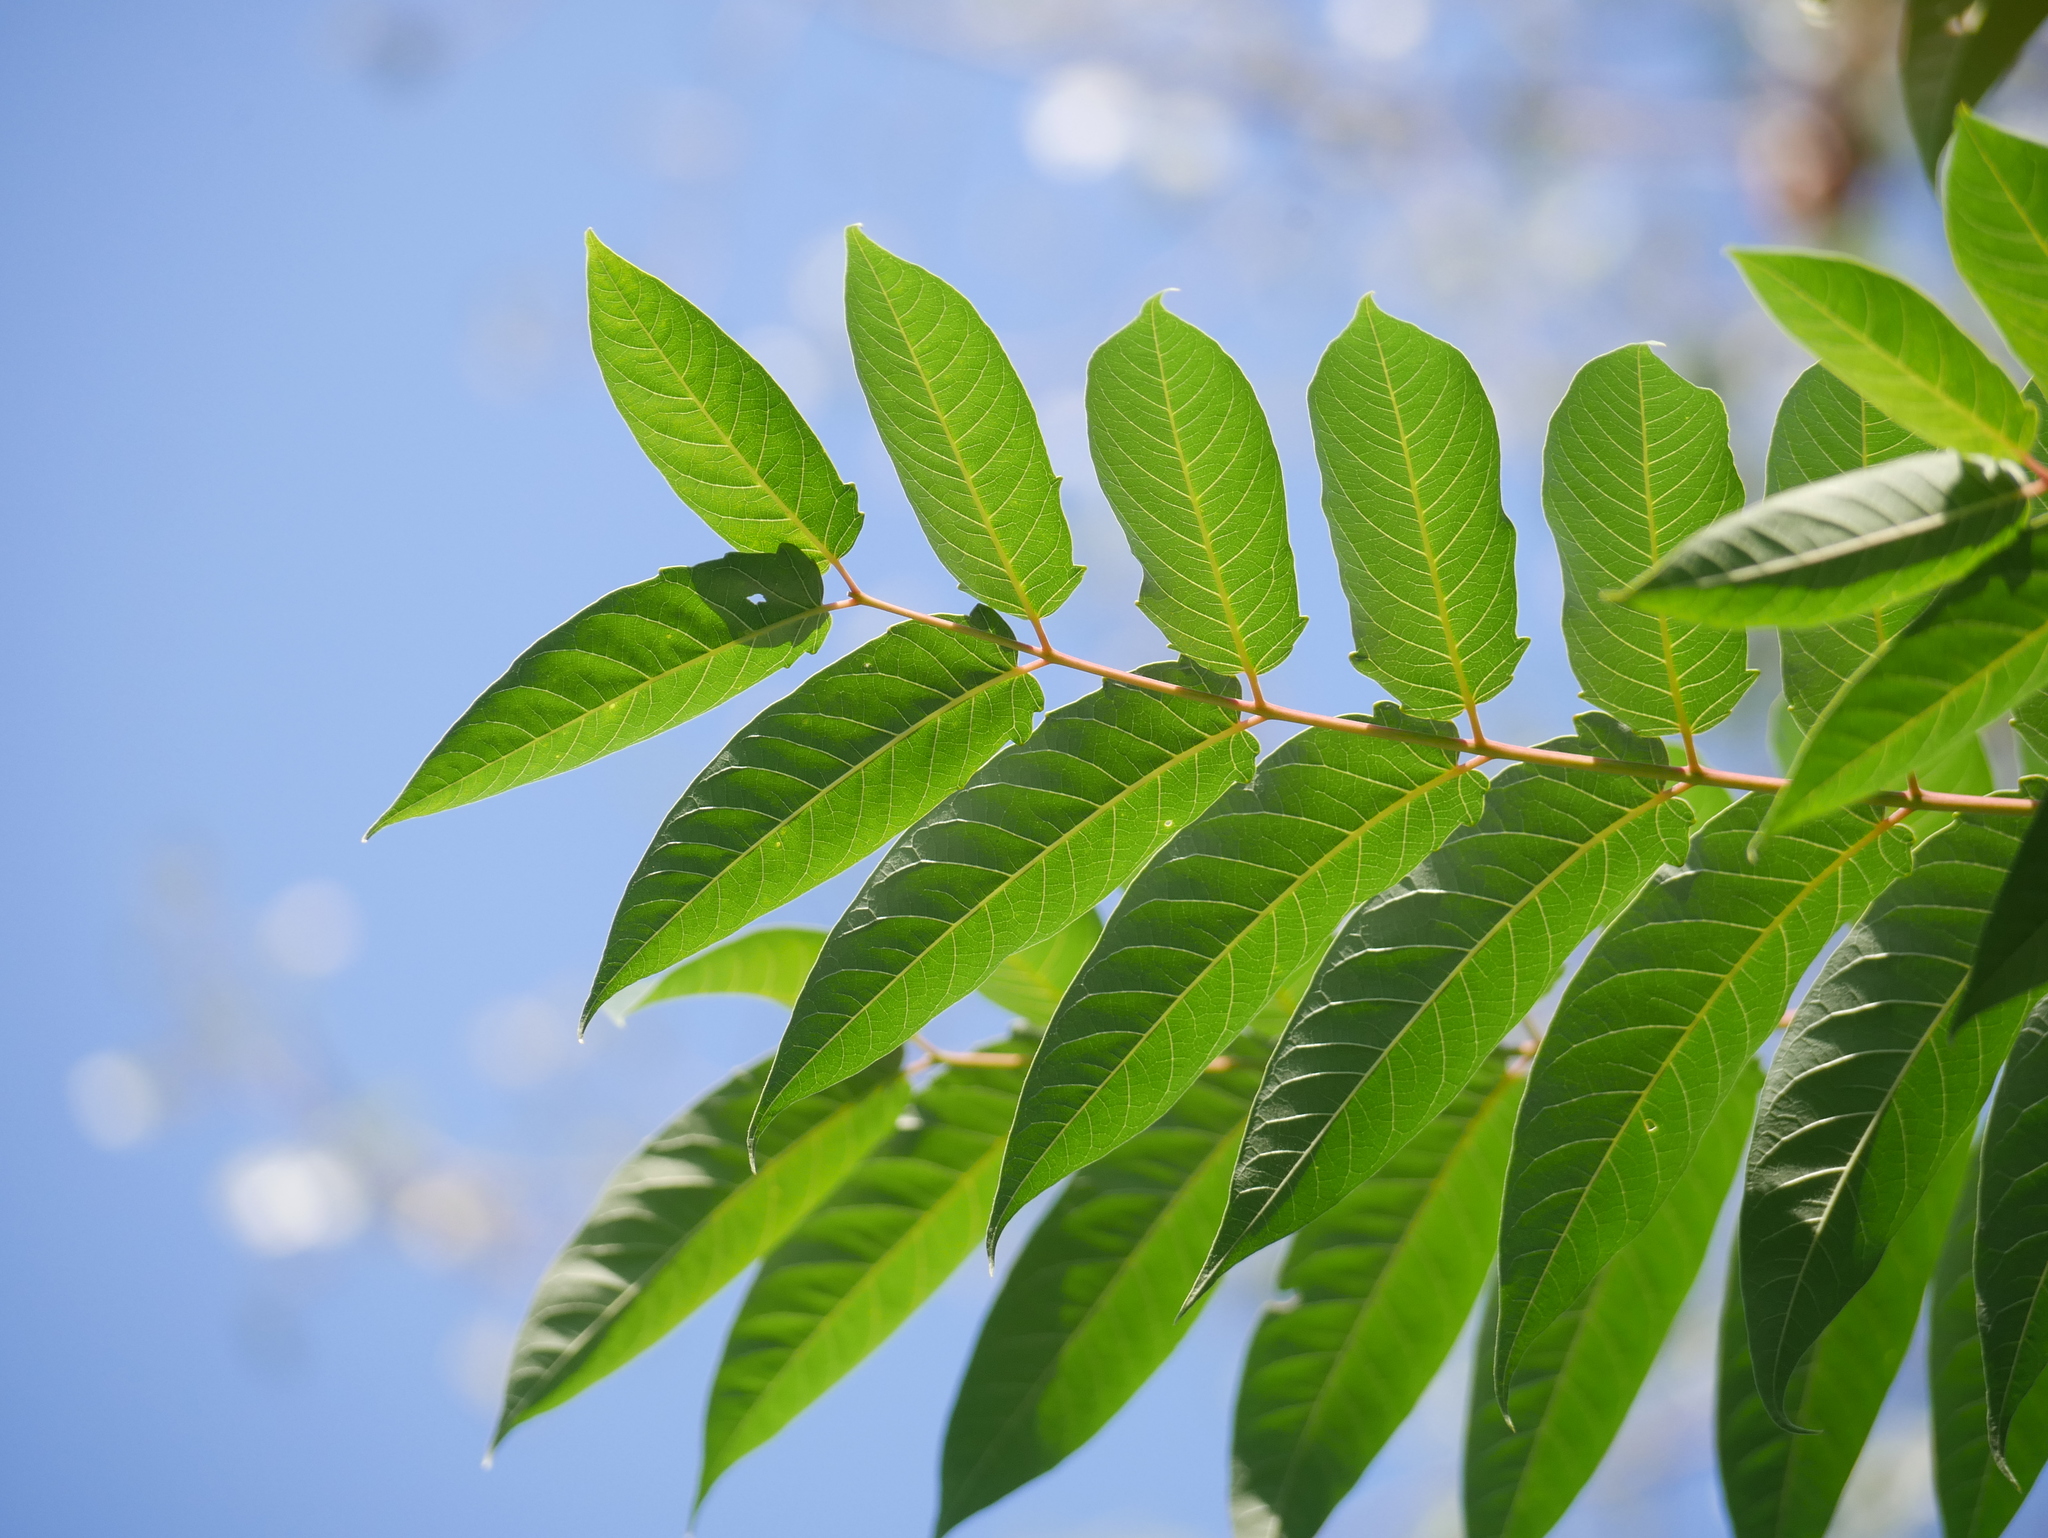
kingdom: Plantae
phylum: Tracheophyta
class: Magnoliopsida
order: Sapindales
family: Simaroubaceae
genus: Ailanthus
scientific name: Ailanthus altissima
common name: Tree-of-heaven
